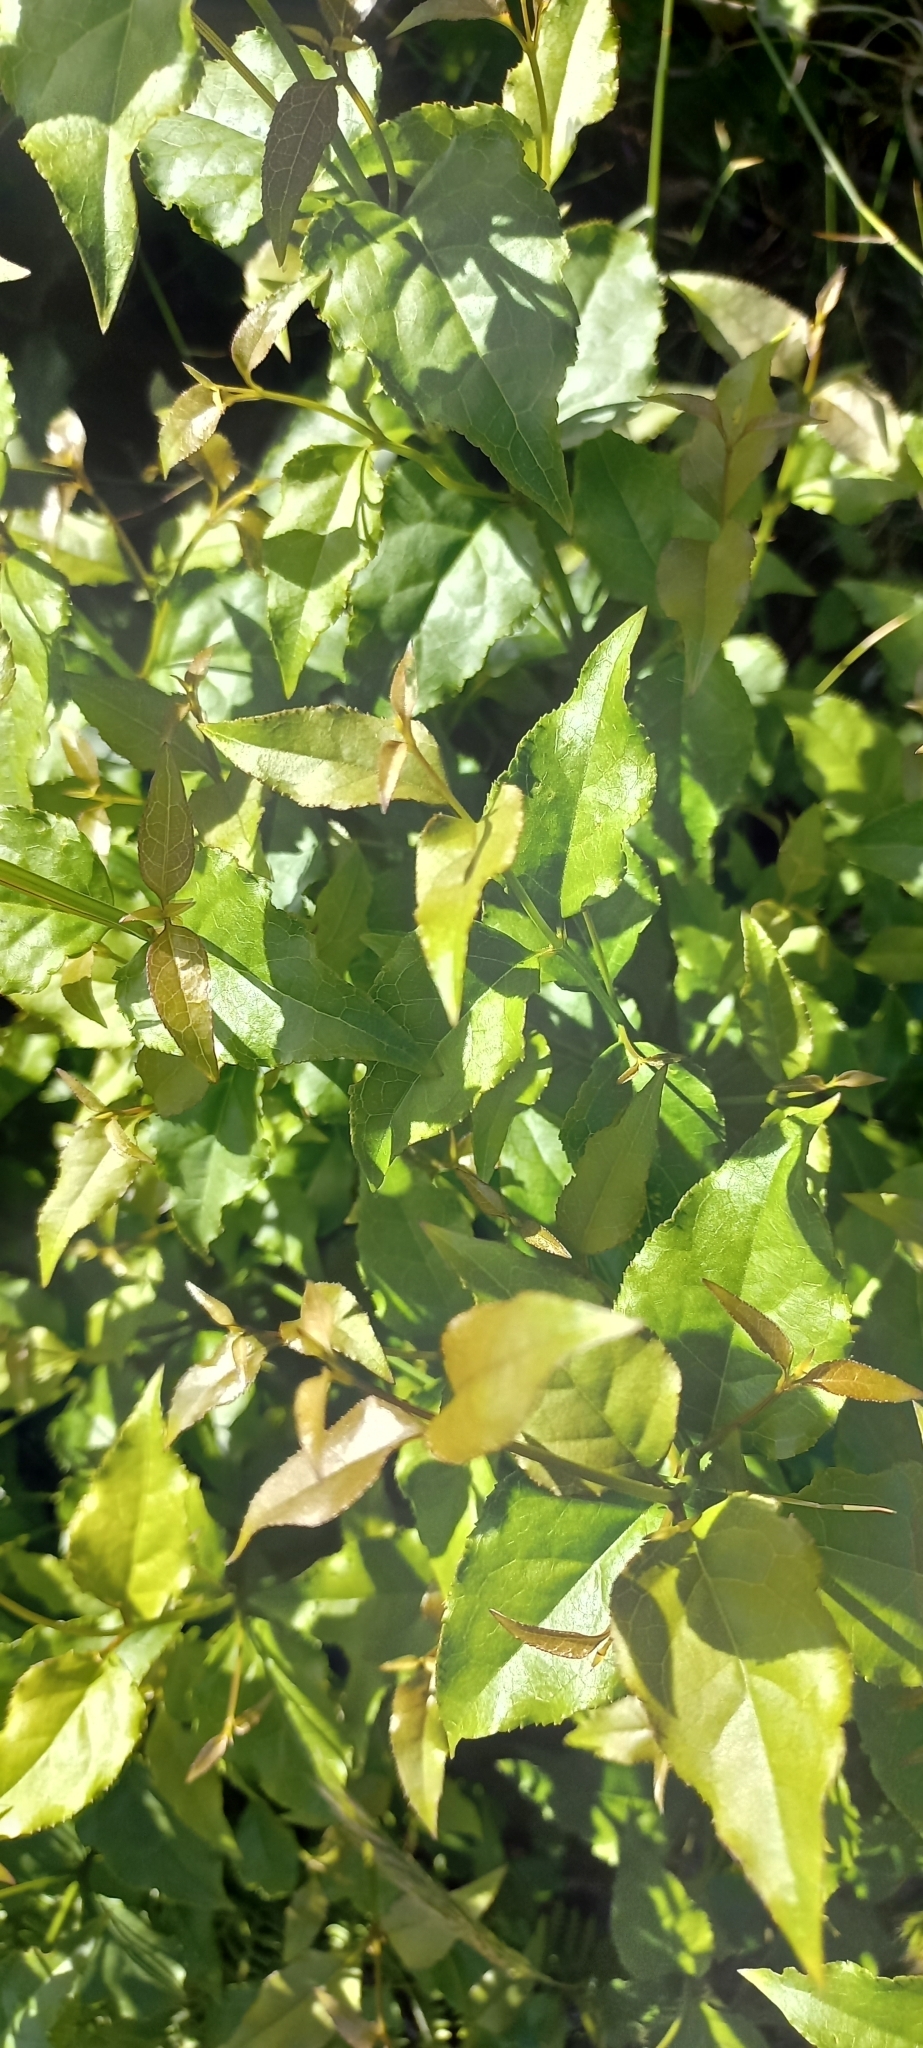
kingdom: Plantae
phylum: Tracheophyta
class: Magnoliopsida
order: Lamiales
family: Stilbaceae
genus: Halleria
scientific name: Halleria lucida
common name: Tree fuschia
